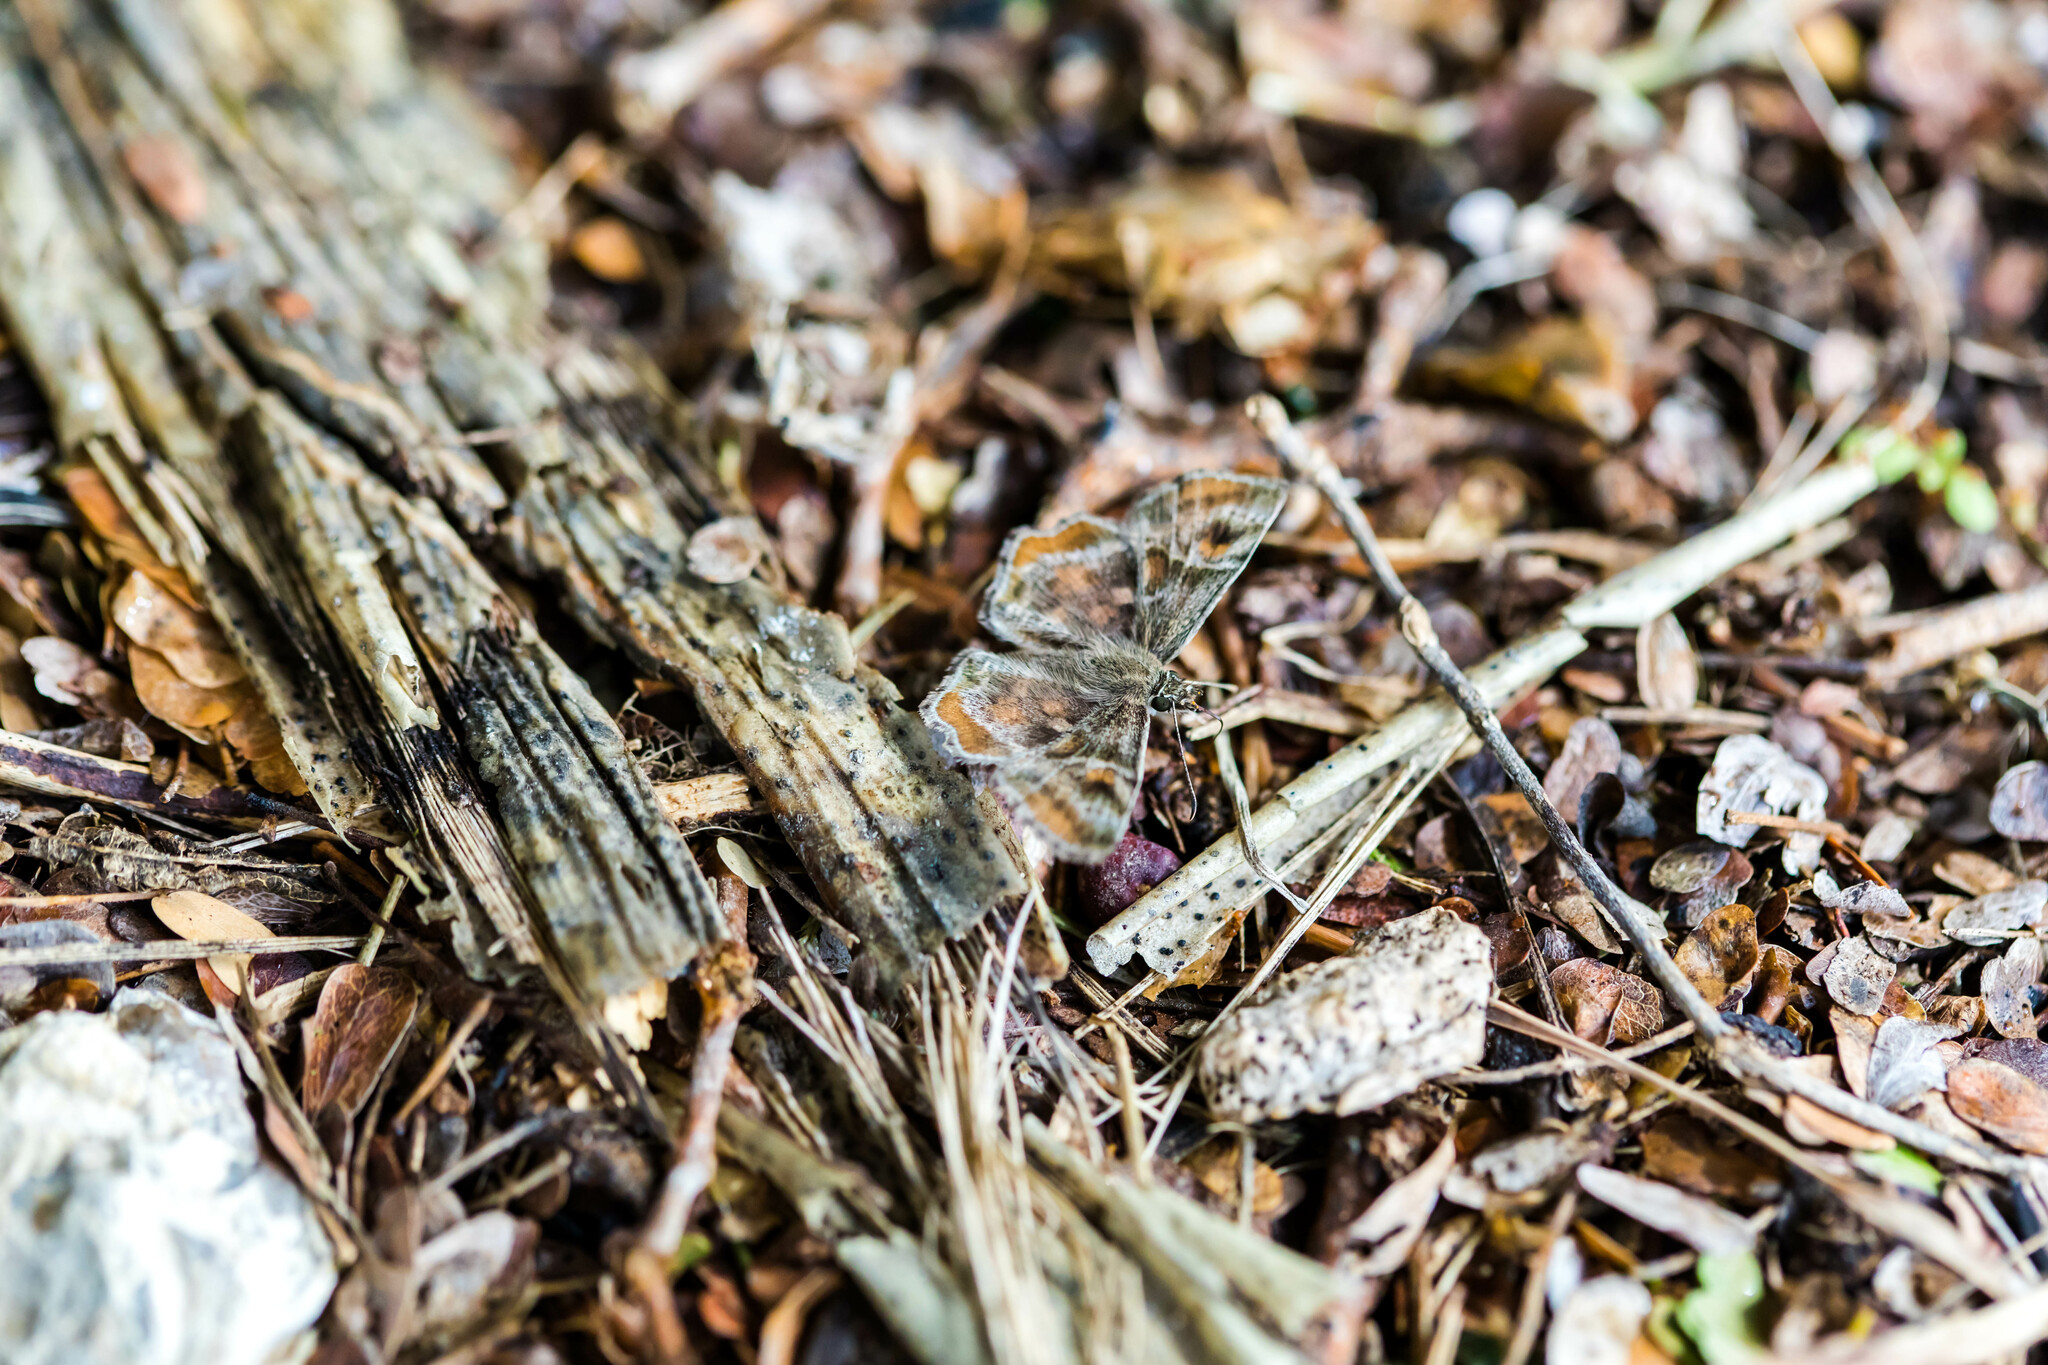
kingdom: Animalia
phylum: Arthropoda
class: Insecta
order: Lepidoptera
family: Hesperiidae
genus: Systasea
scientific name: Systasea pulverulenta
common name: Texas powdered skipper
